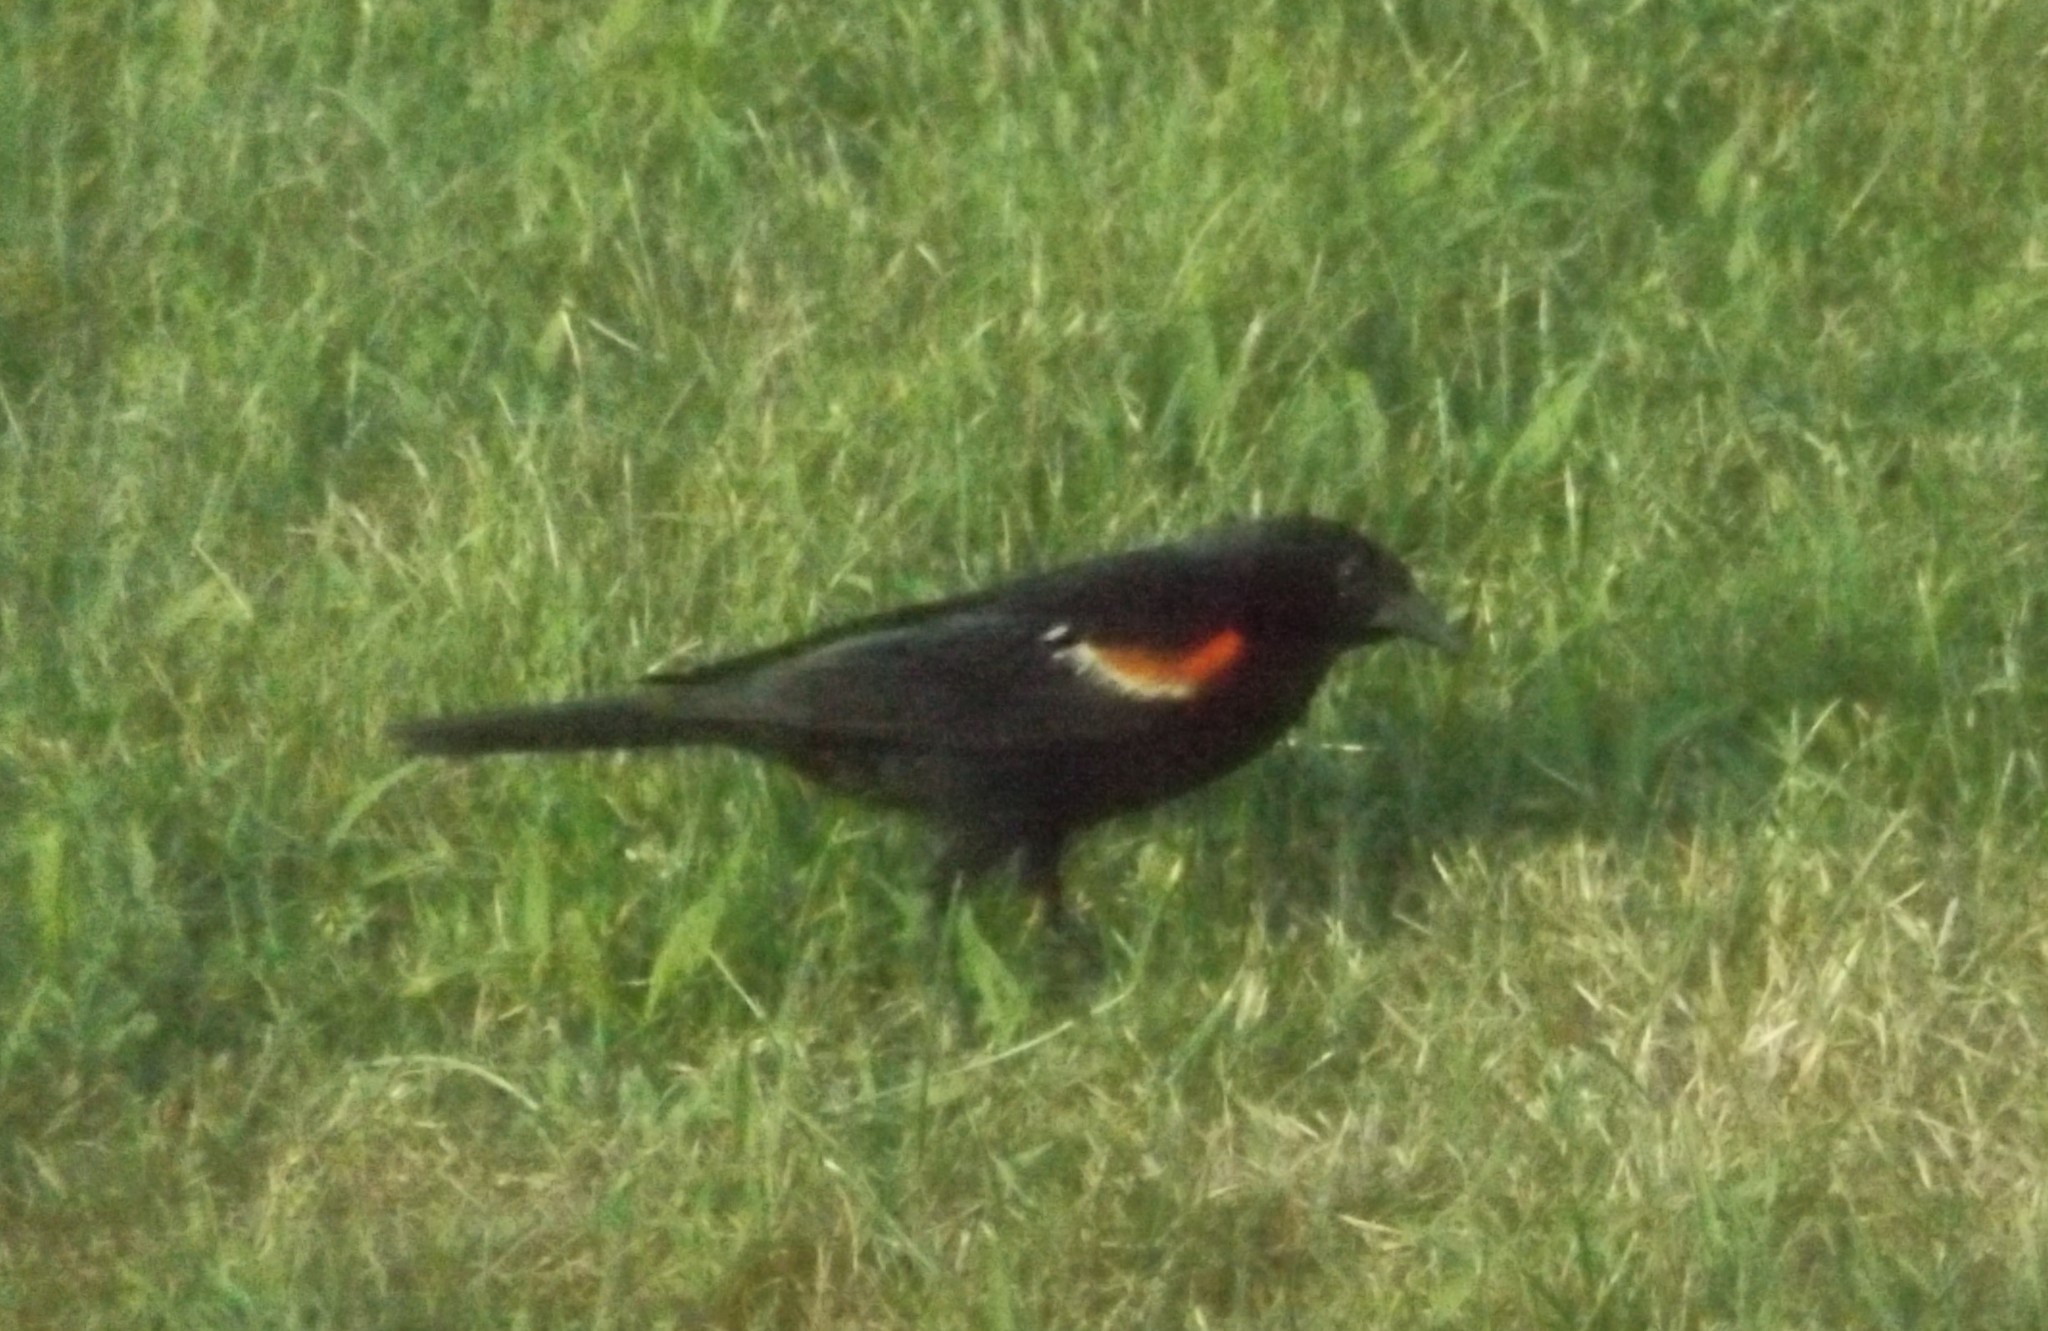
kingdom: Animalia
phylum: Chordata
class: Aves
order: Passeriformes
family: Icteridae
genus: Agelaius
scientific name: Agelaius phoeniceus
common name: Red-winged blackbird
